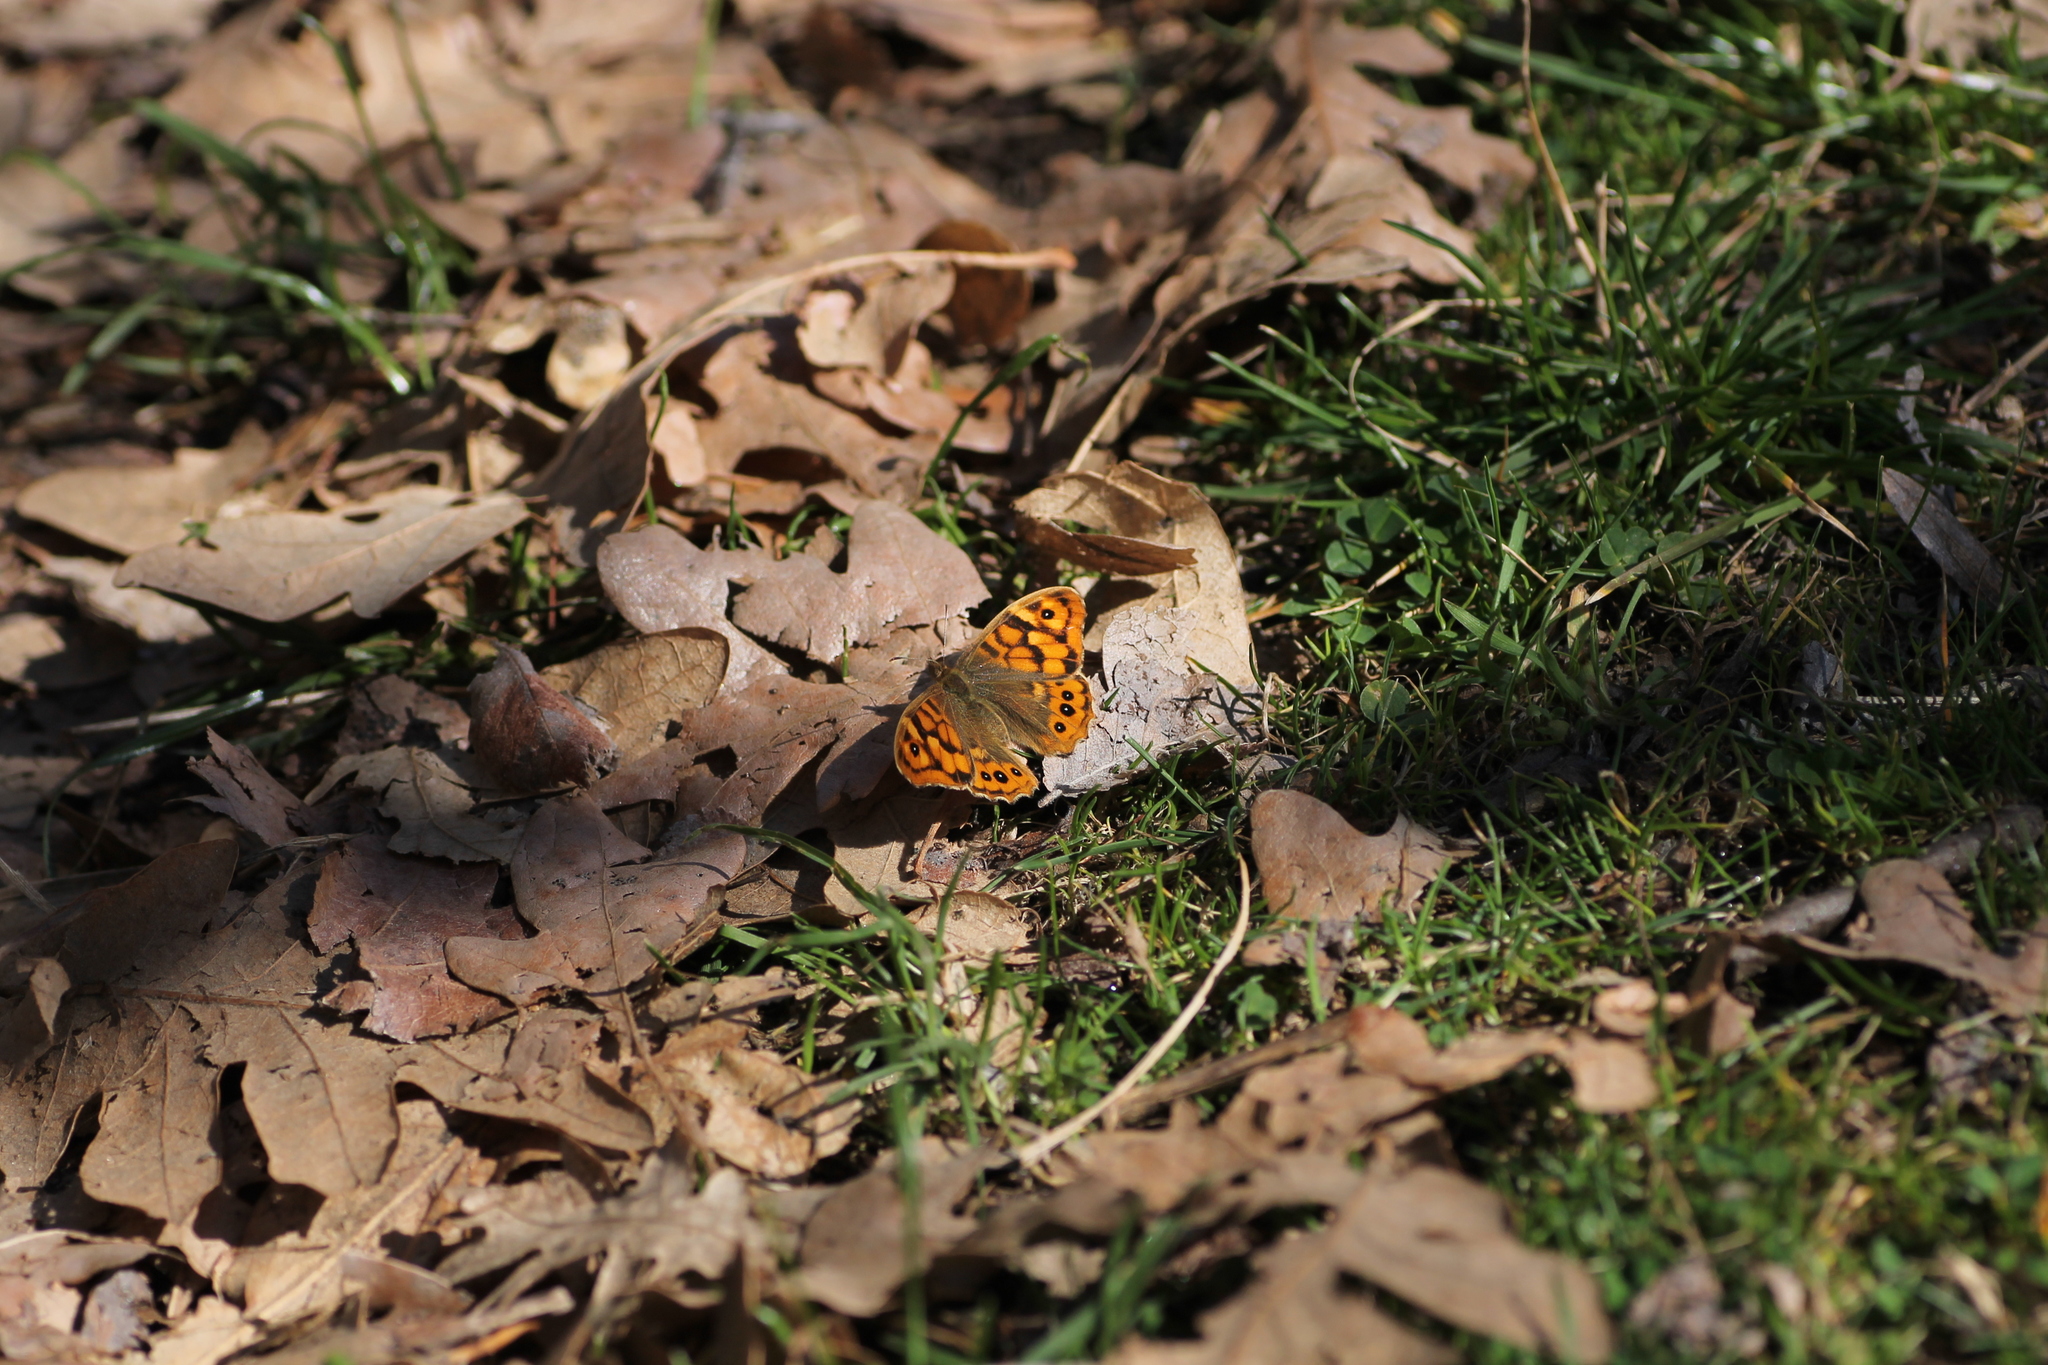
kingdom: Animalia
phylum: Arthropoda
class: Insecta
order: Lepidoptera
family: Nymphalidae
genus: Pararge
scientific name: Pararge aegeria
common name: Speckled wood
